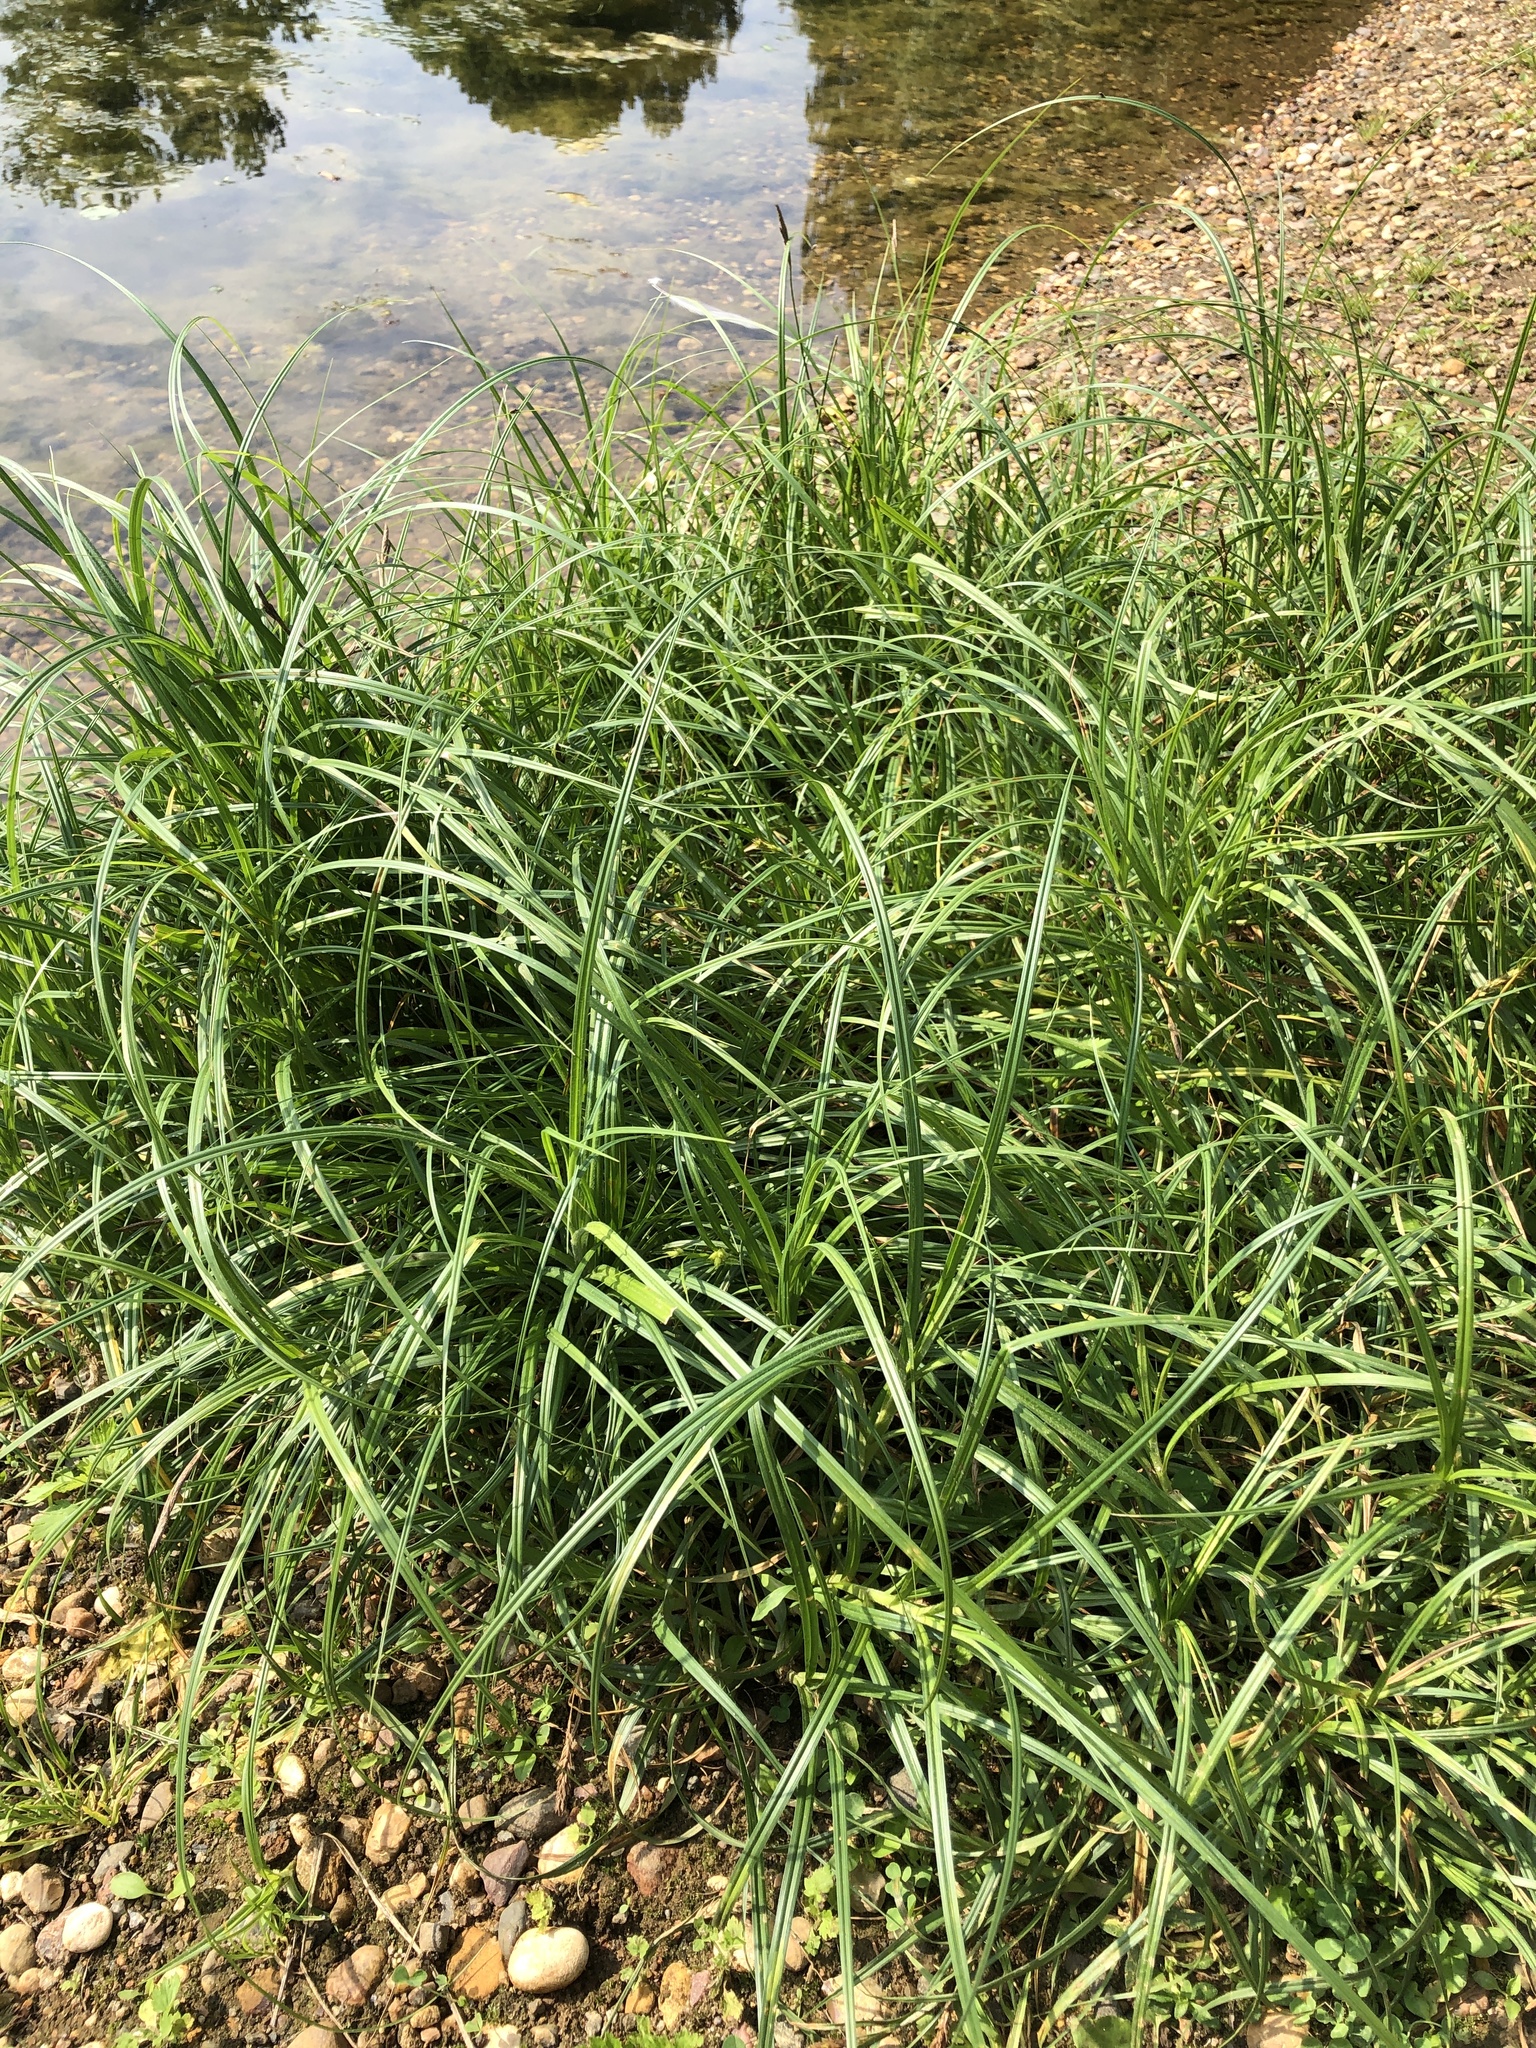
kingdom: Plantae
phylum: Tracheophyta
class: Liliopsida
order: Poales
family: Cyperaceae
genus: Carex
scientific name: Carex hirta
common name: Hairy sedge
